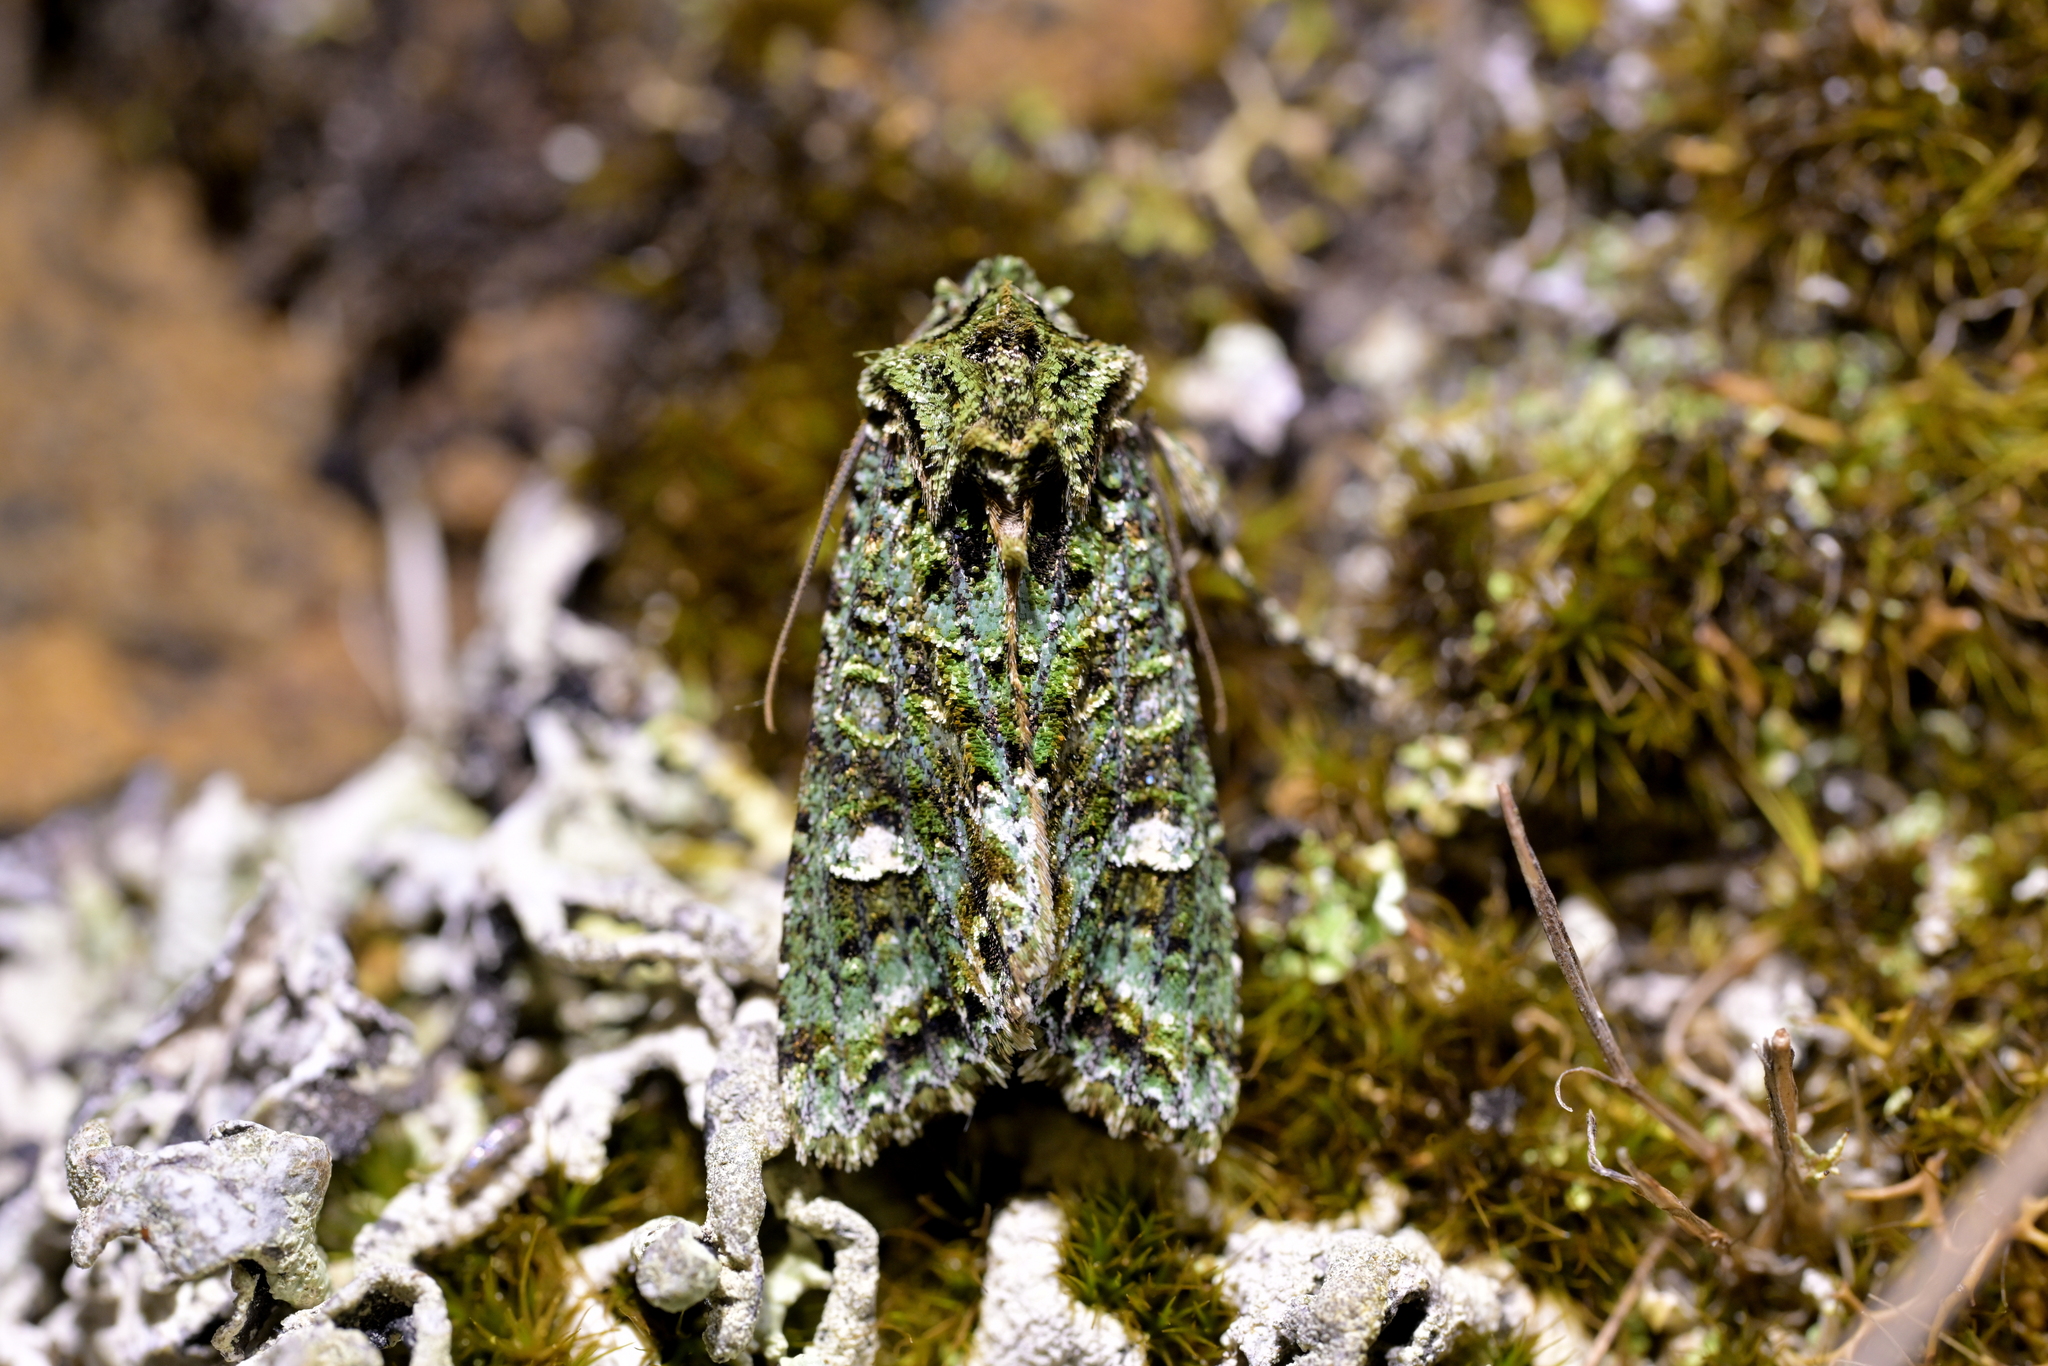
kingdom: Animalia
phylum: Arthropoda
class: Insecta
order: Lepidoptera
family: Noctuidae
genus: Ichneutica
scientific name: Ichneutica
